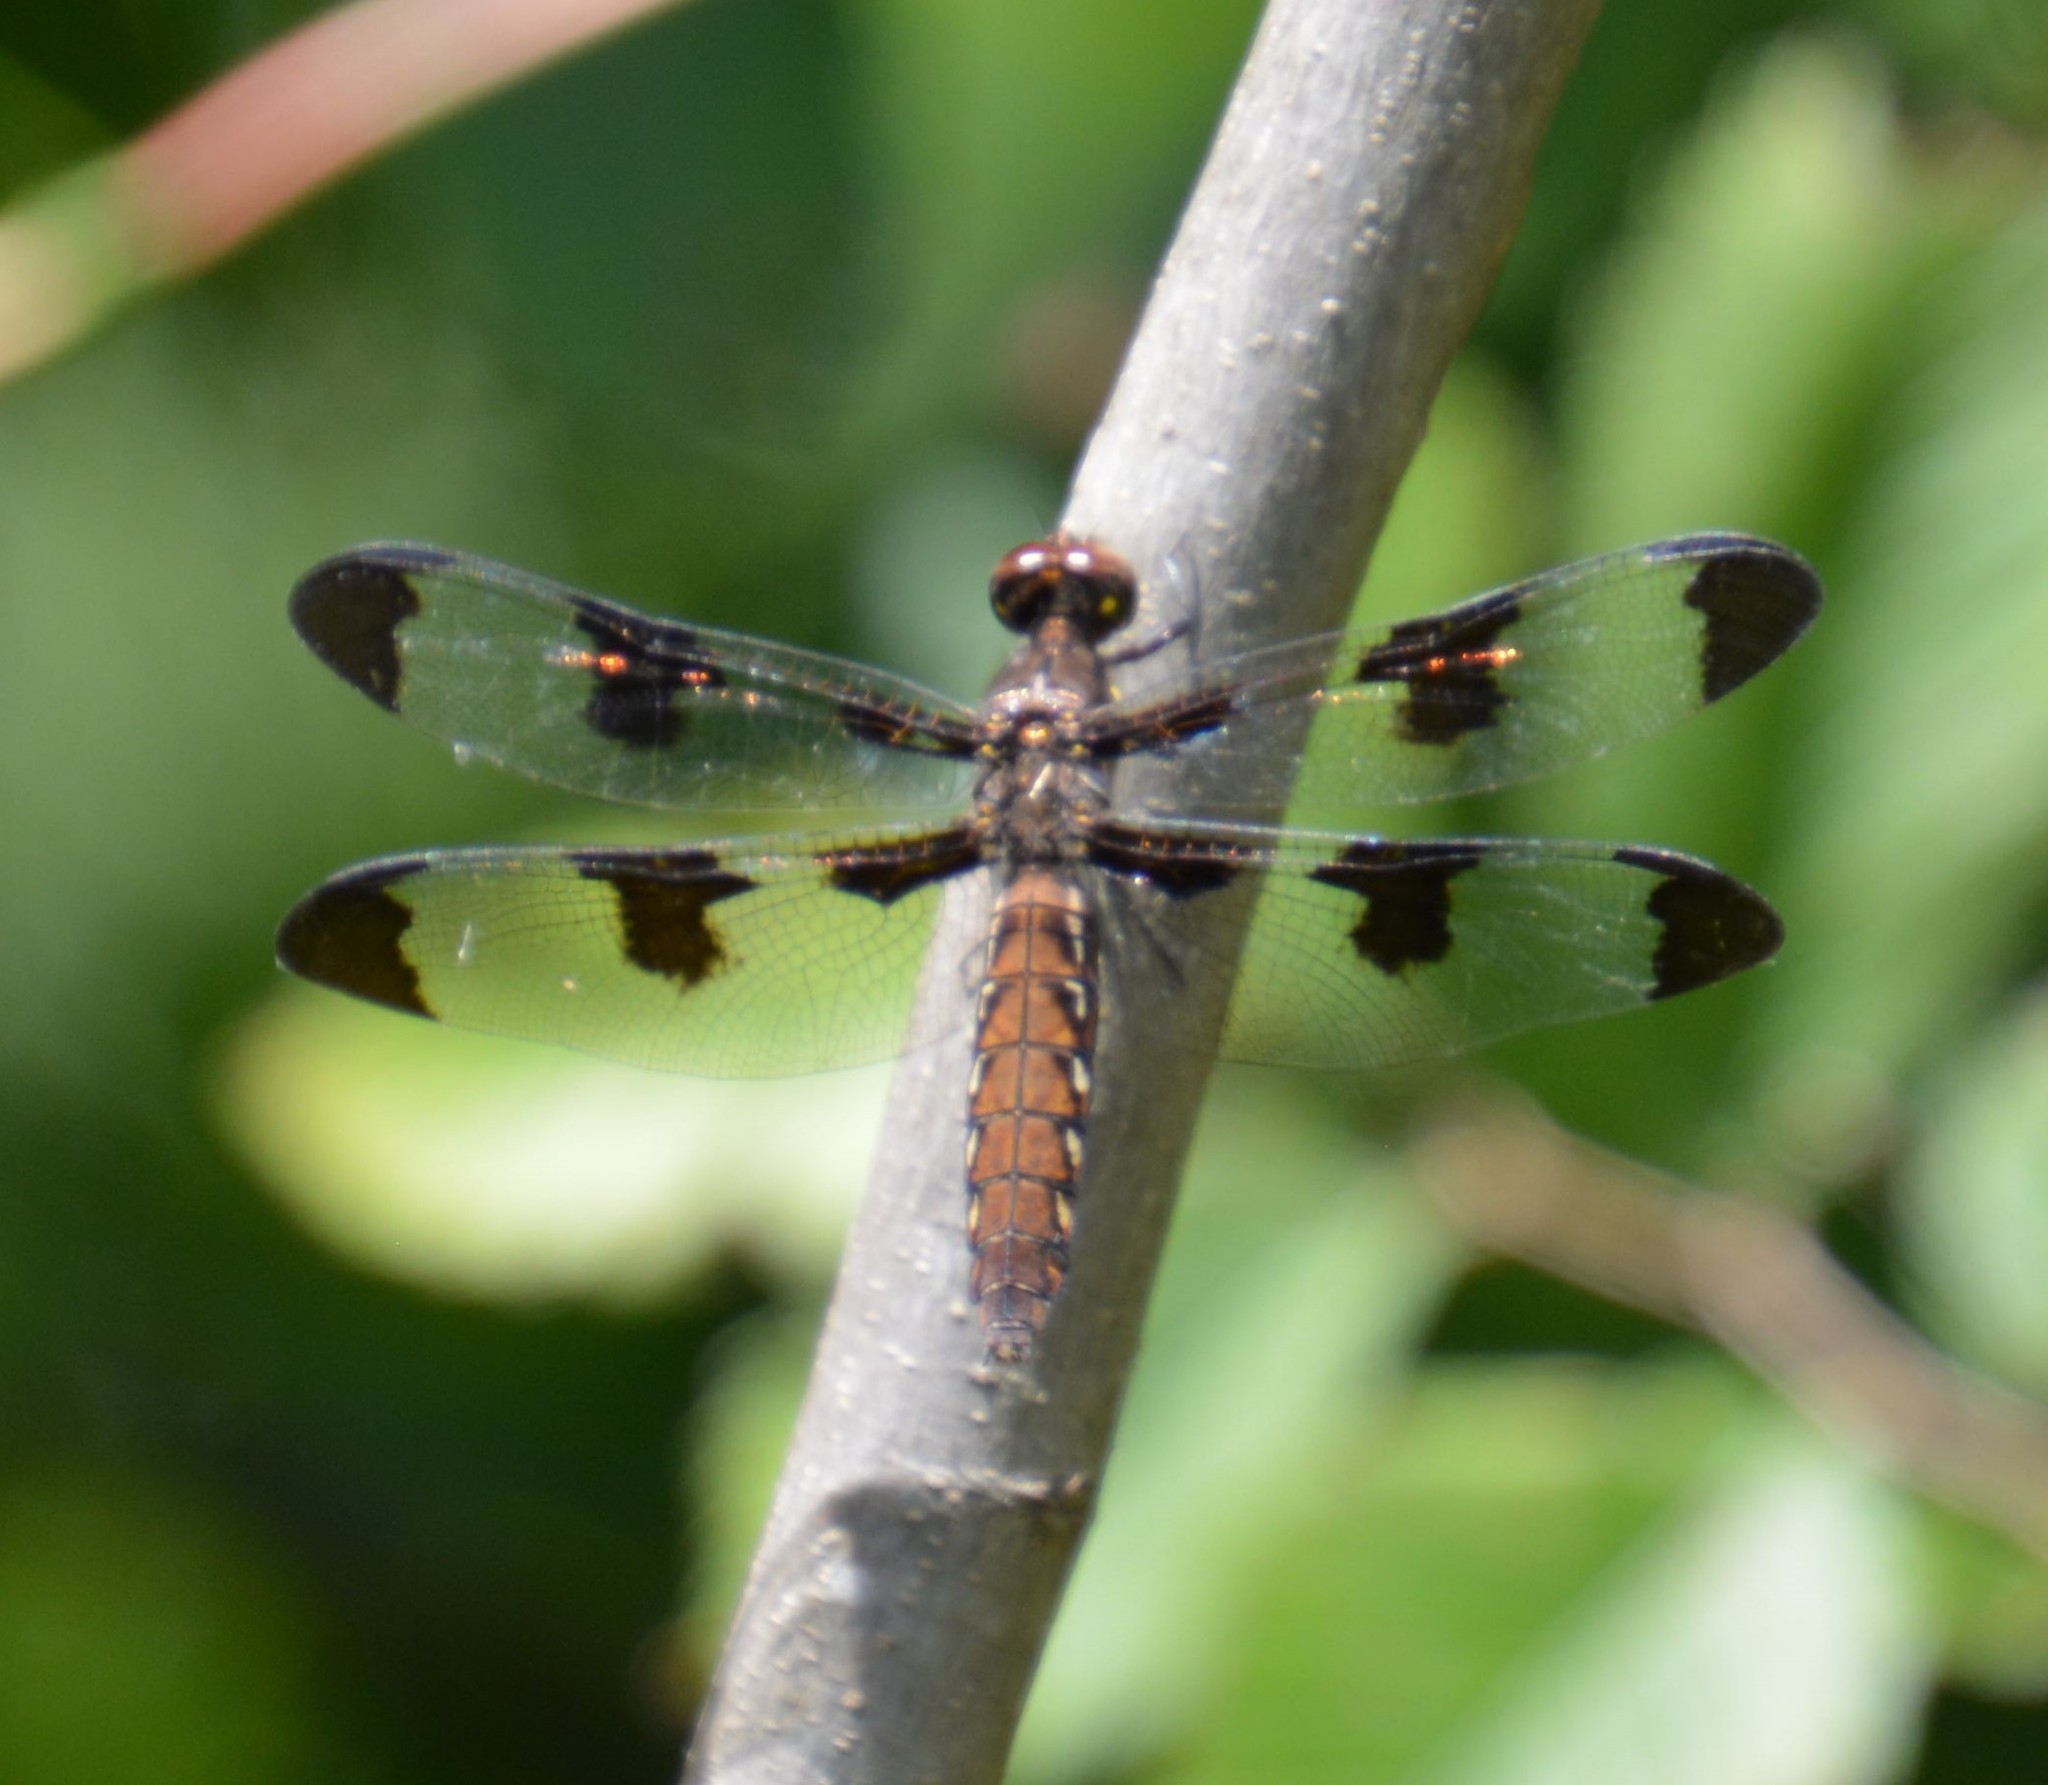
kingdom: Animalia
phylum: Arthropoda
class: Insecta
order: Odonata
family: Libellulidae
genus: Plathemis
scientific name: Plathemis lydia
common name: Common whitetail
